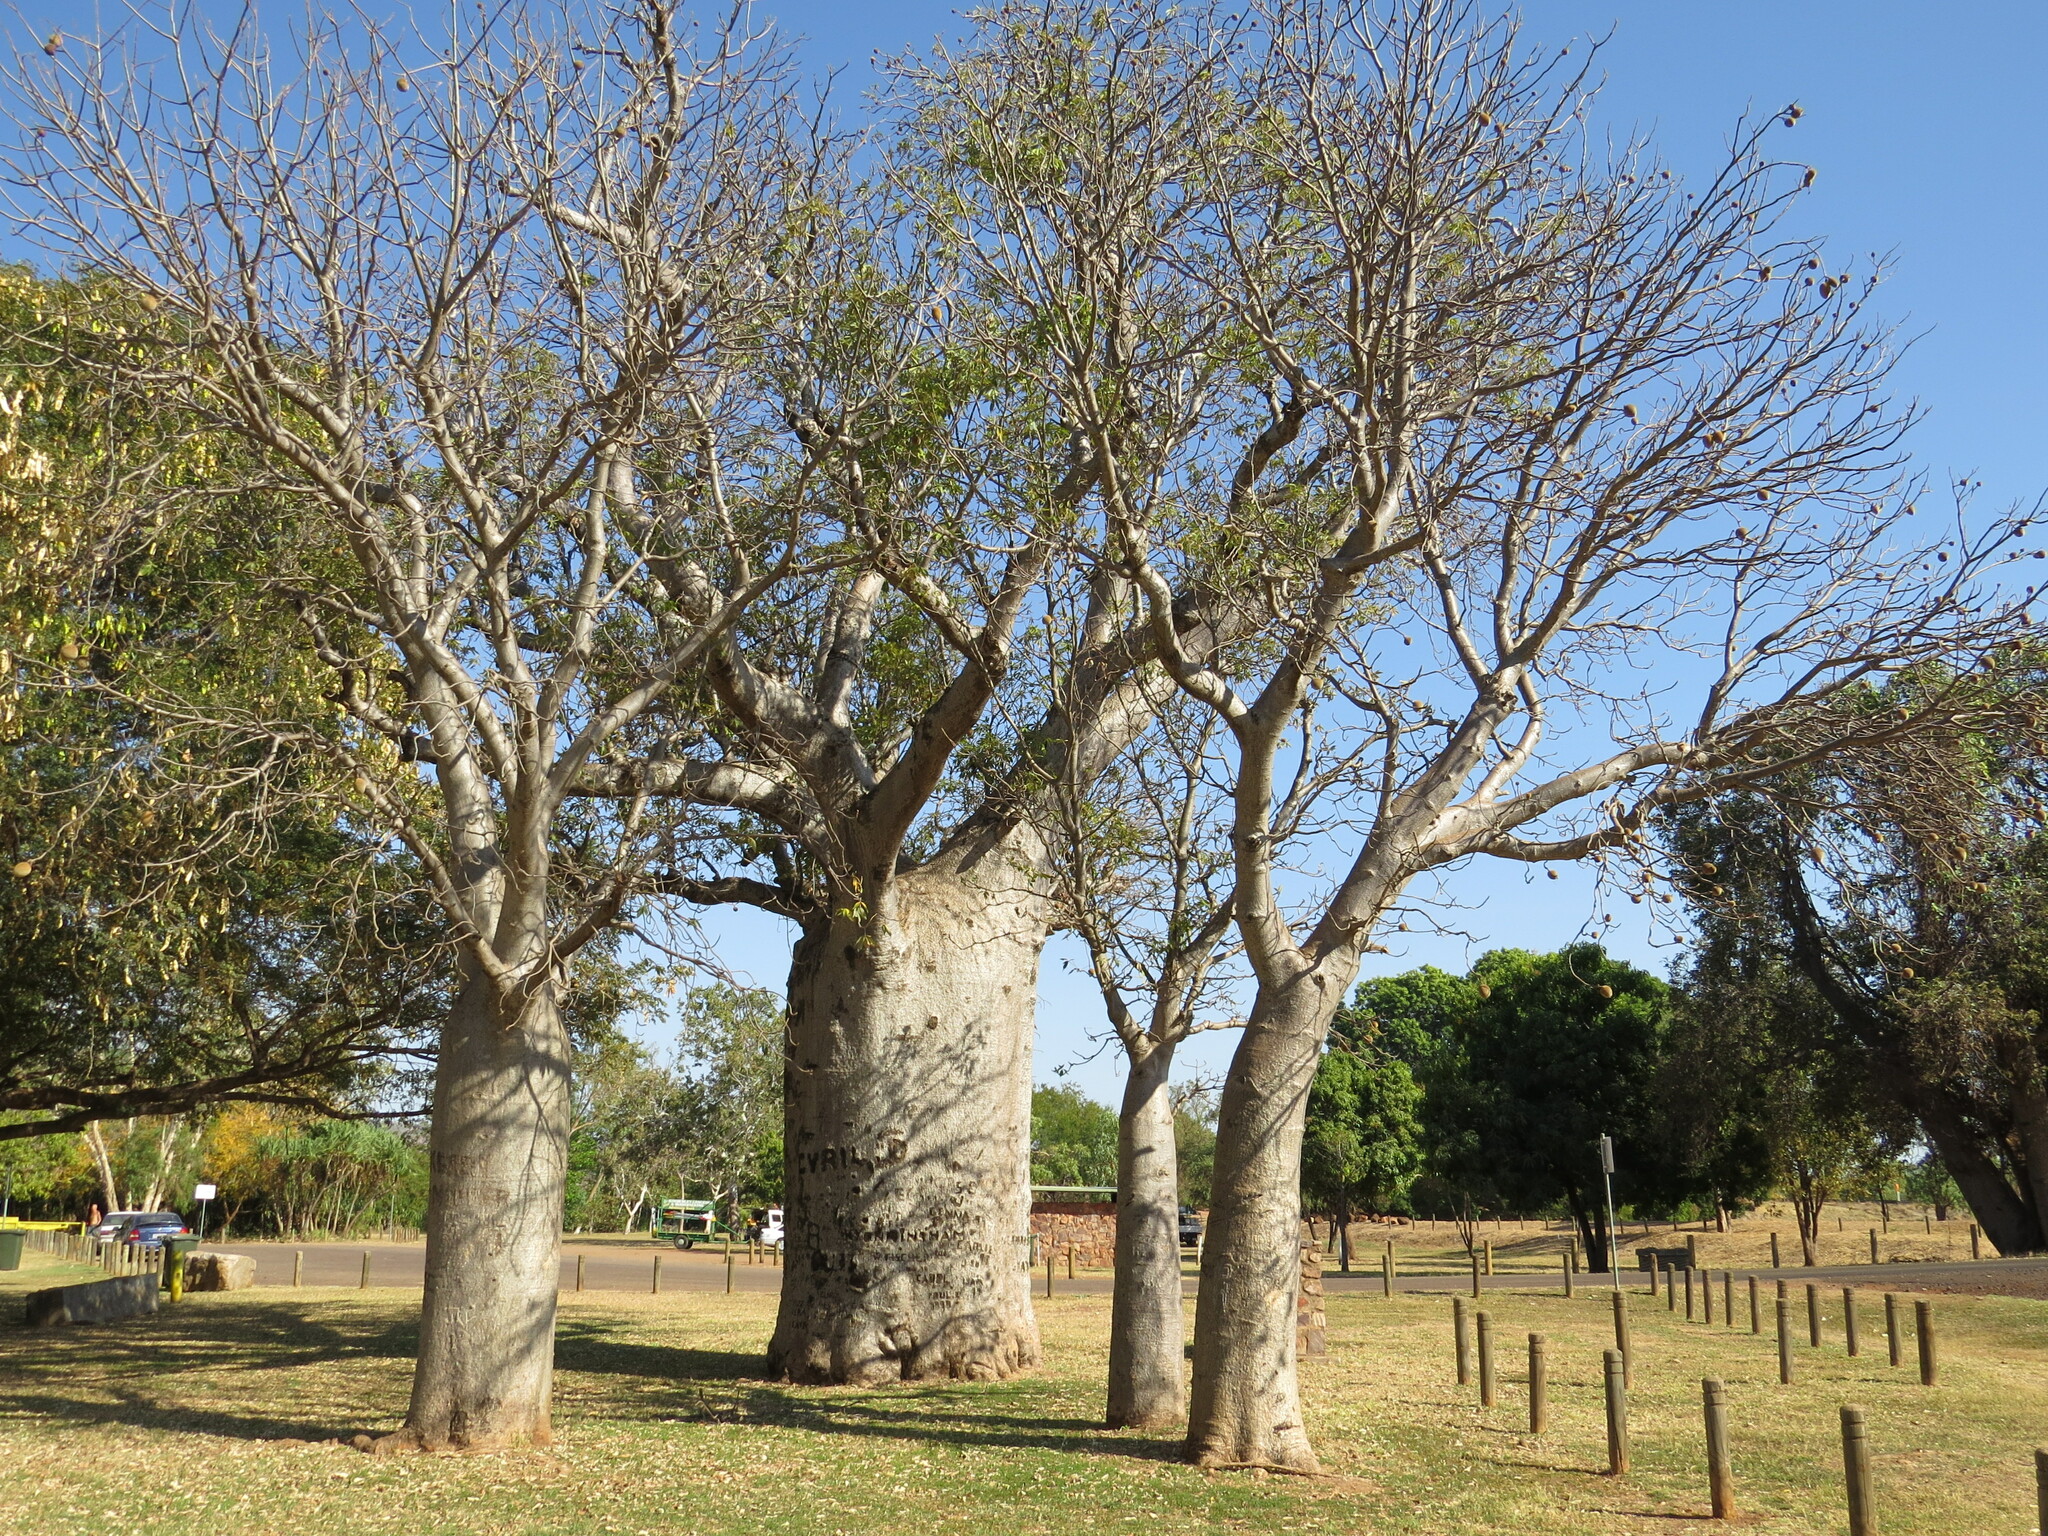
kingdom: Plantae
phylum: Tracheophyta
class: Magnoliopsida
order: Malvales
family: Malvaceae
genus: Adansonia
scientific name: Adansonia gregorii
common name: Australian baobab
